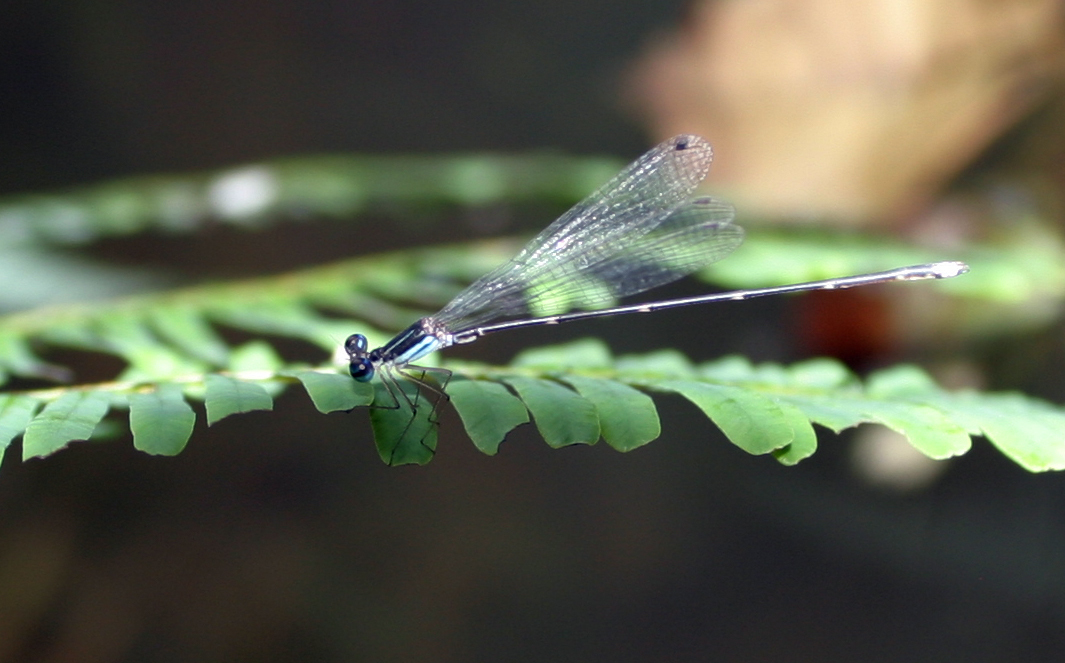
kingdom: Animalia
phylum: Arthropoda
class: Insecta
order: Odonata
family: Platycnemididae
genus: Coeliccia
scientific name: Coeliccia kazukoae
